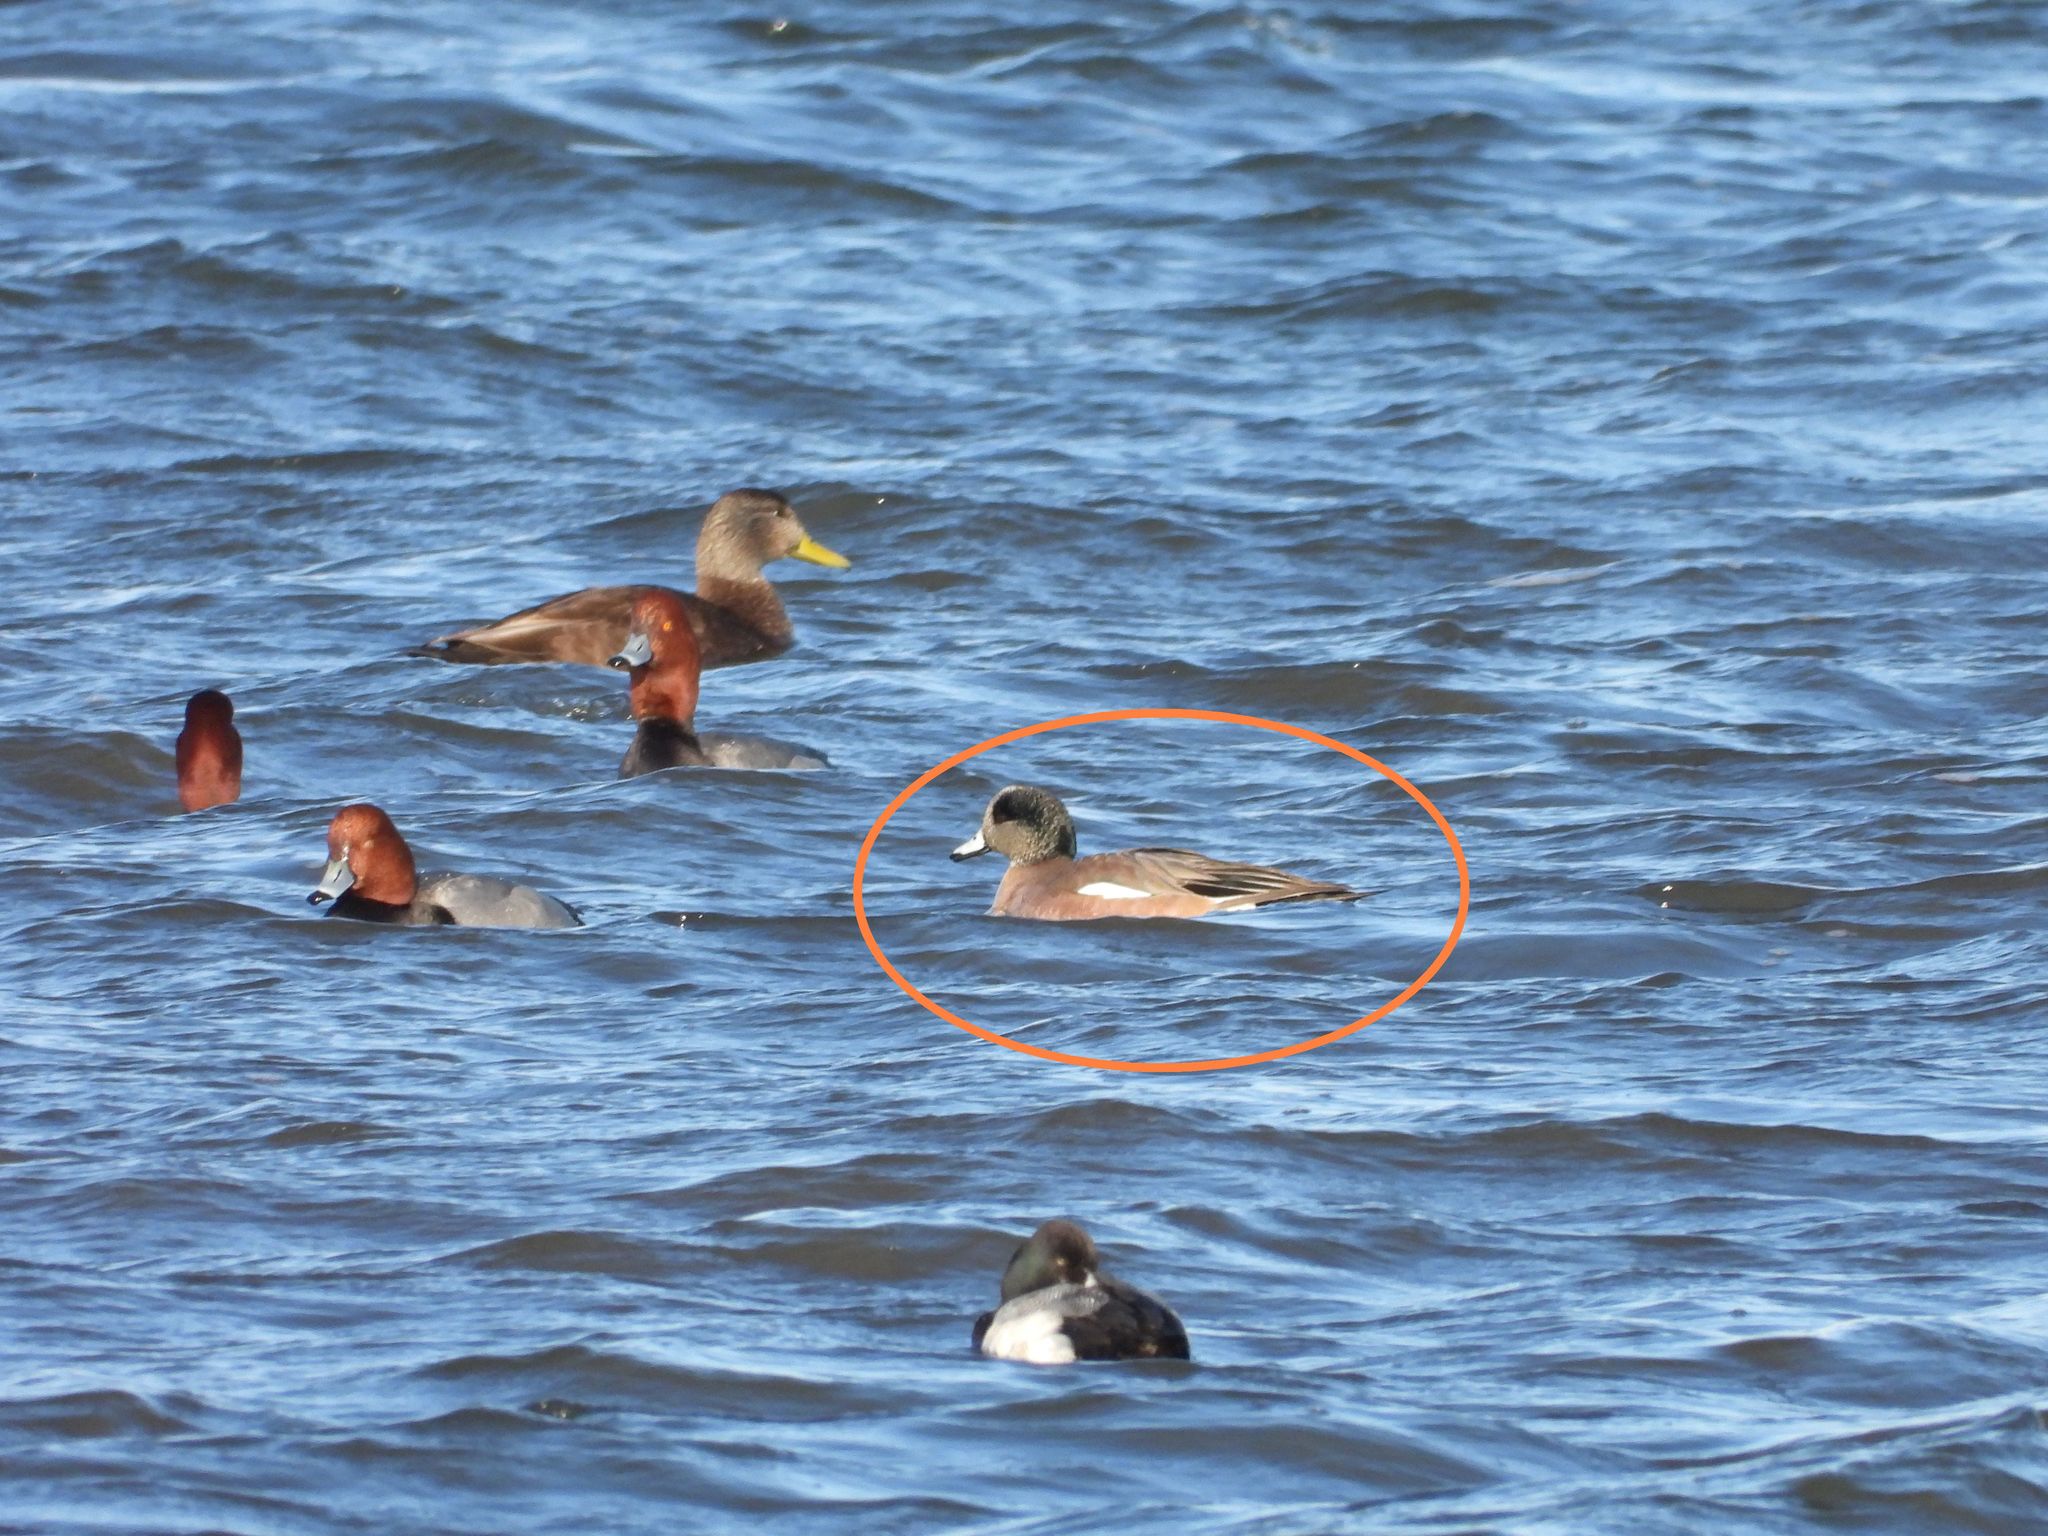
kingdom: Animalia
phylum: Chordata
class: Aves
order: Anseriformes
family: Anatidae
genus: Mareca
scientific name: Mareca americana
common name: American wigeon
